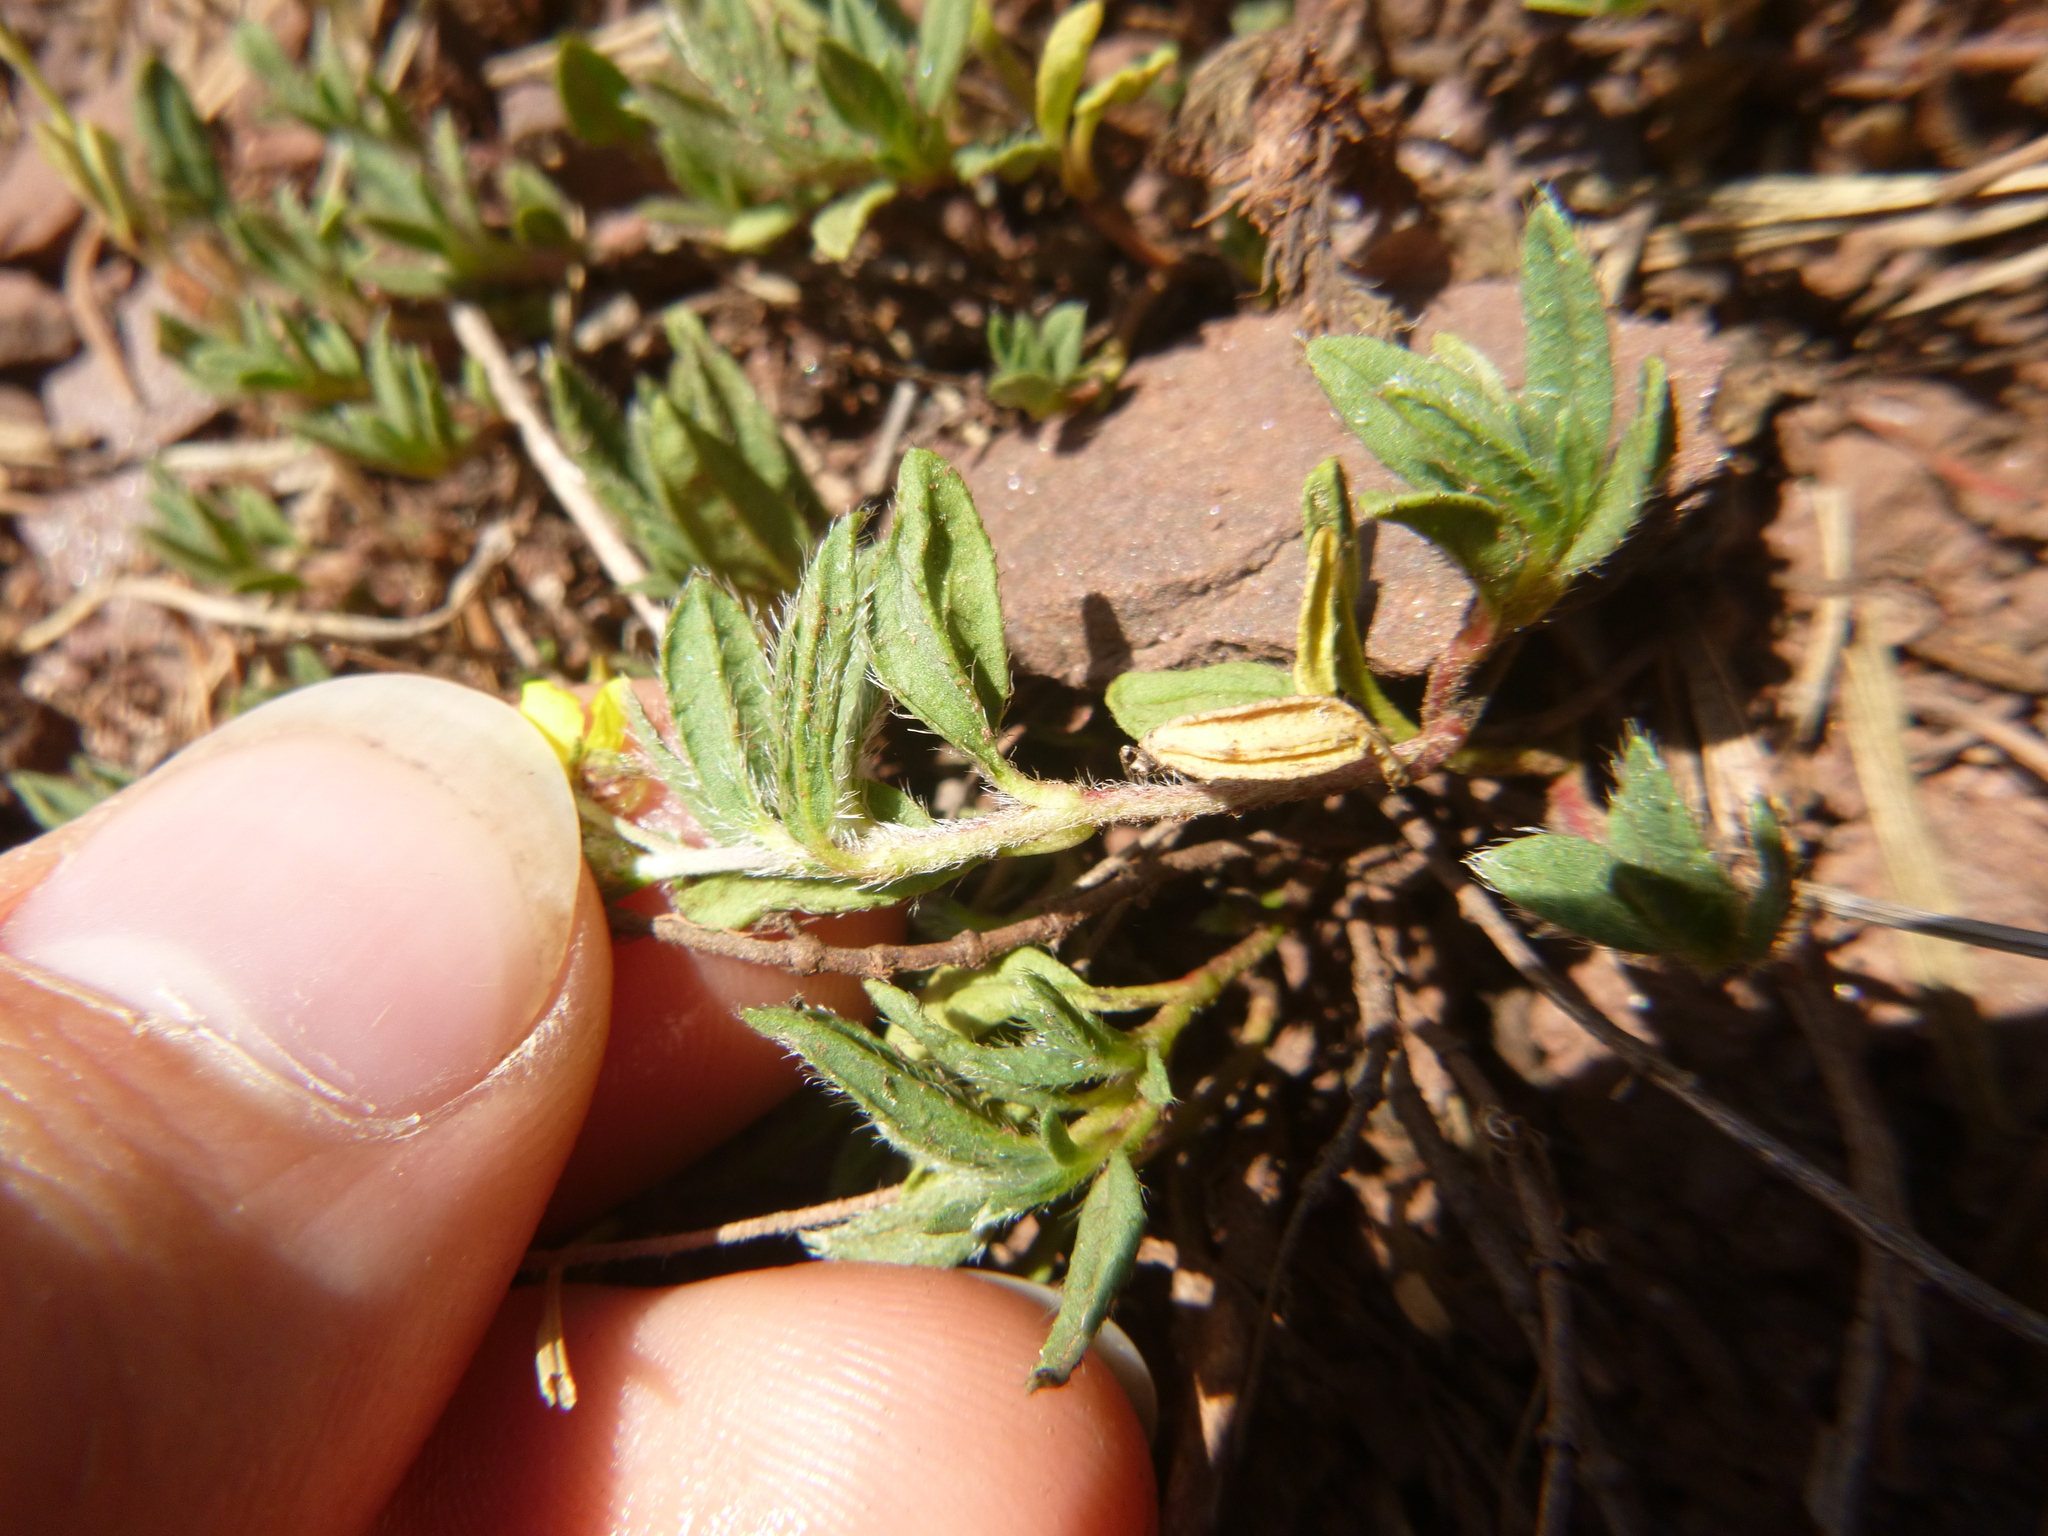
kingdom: Plantae
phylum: Tracheophyta
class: Magnoliopsida
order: Malvales
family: Cistaceae
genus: Helianthemum
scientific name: Helianthemum oelandicum
